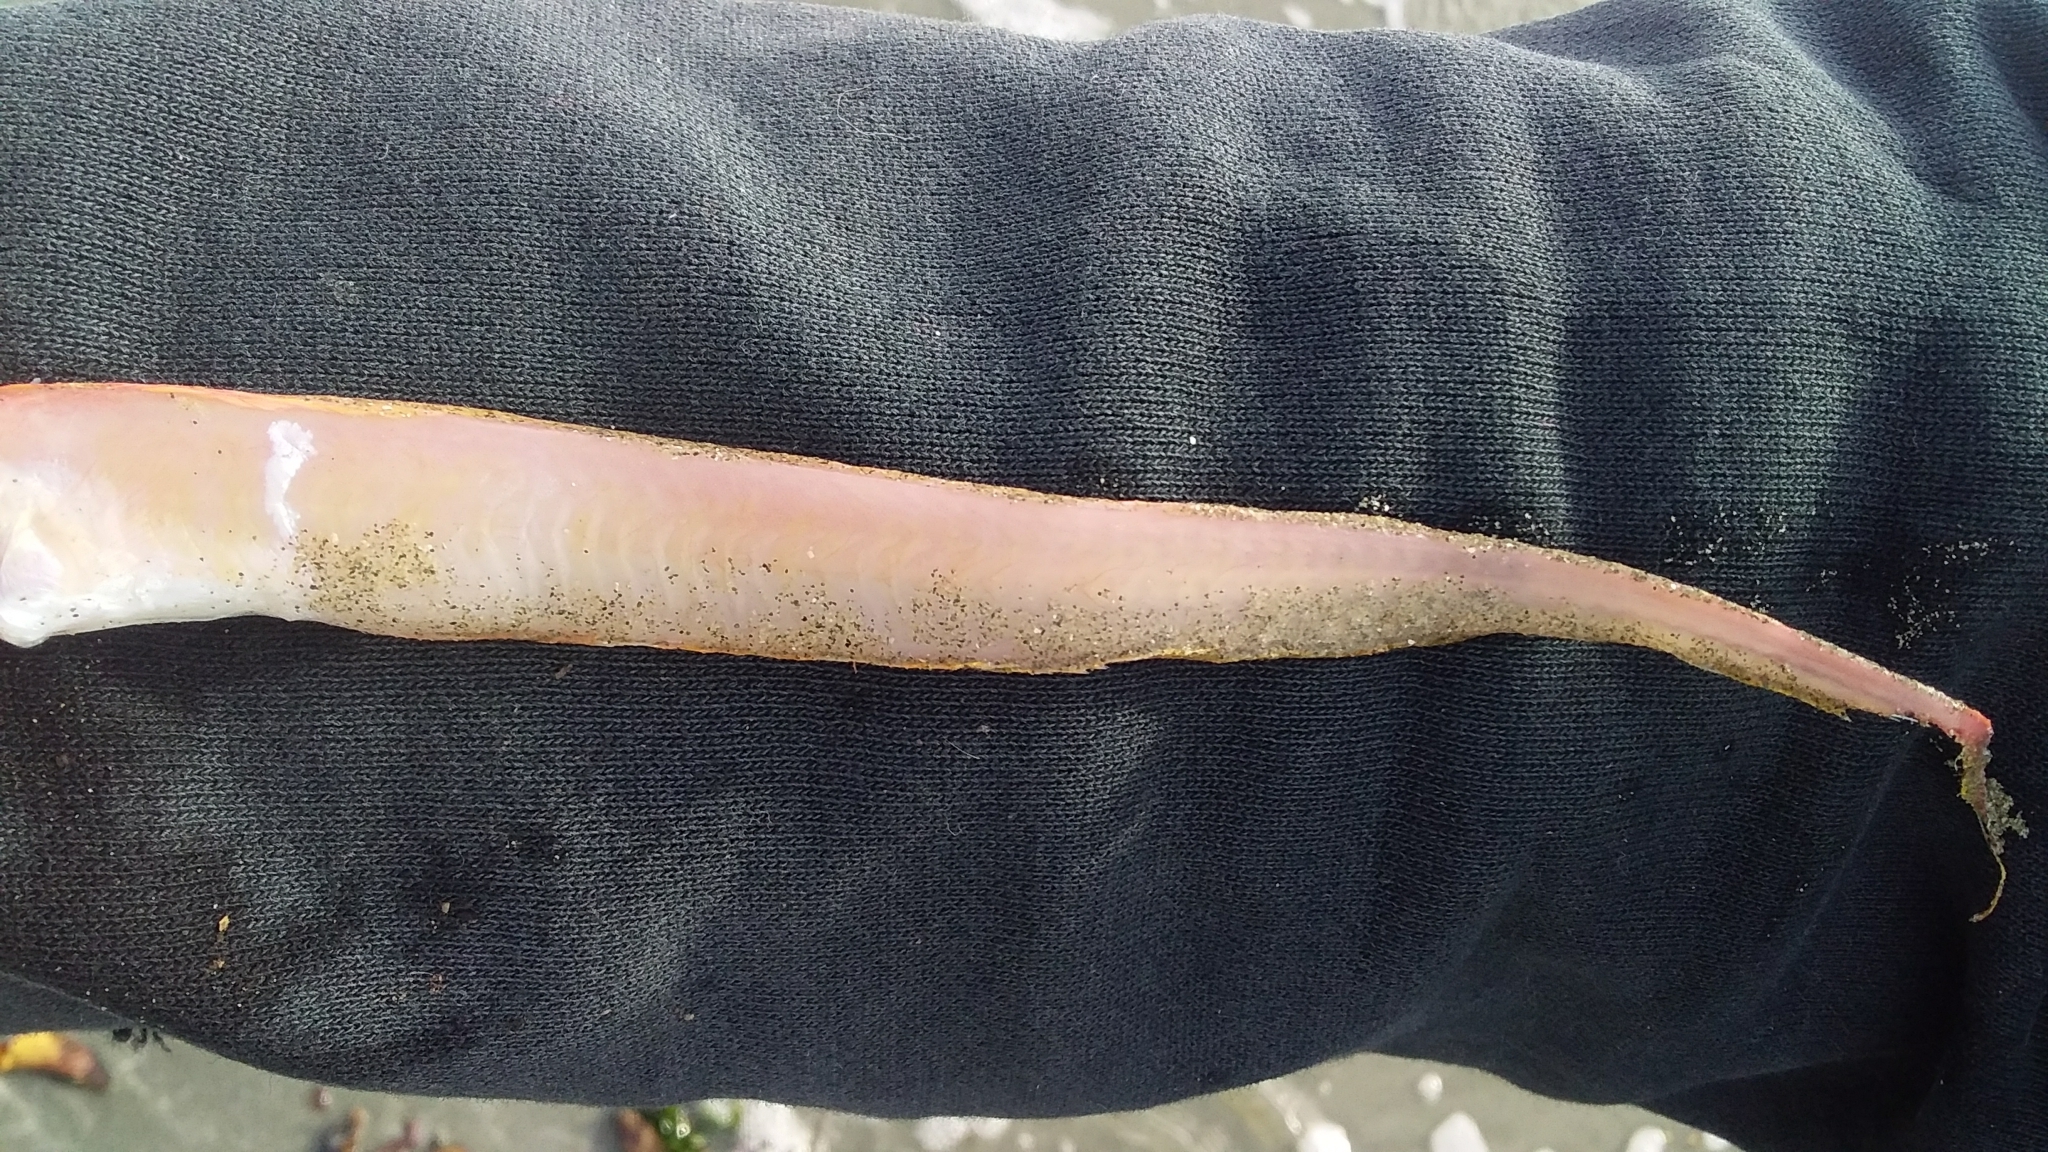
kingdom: Animalia
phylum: Chordata
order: Perciformes
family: Cepolidae
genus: Cepola
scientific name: Cepola haastii
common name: Red bandfish
